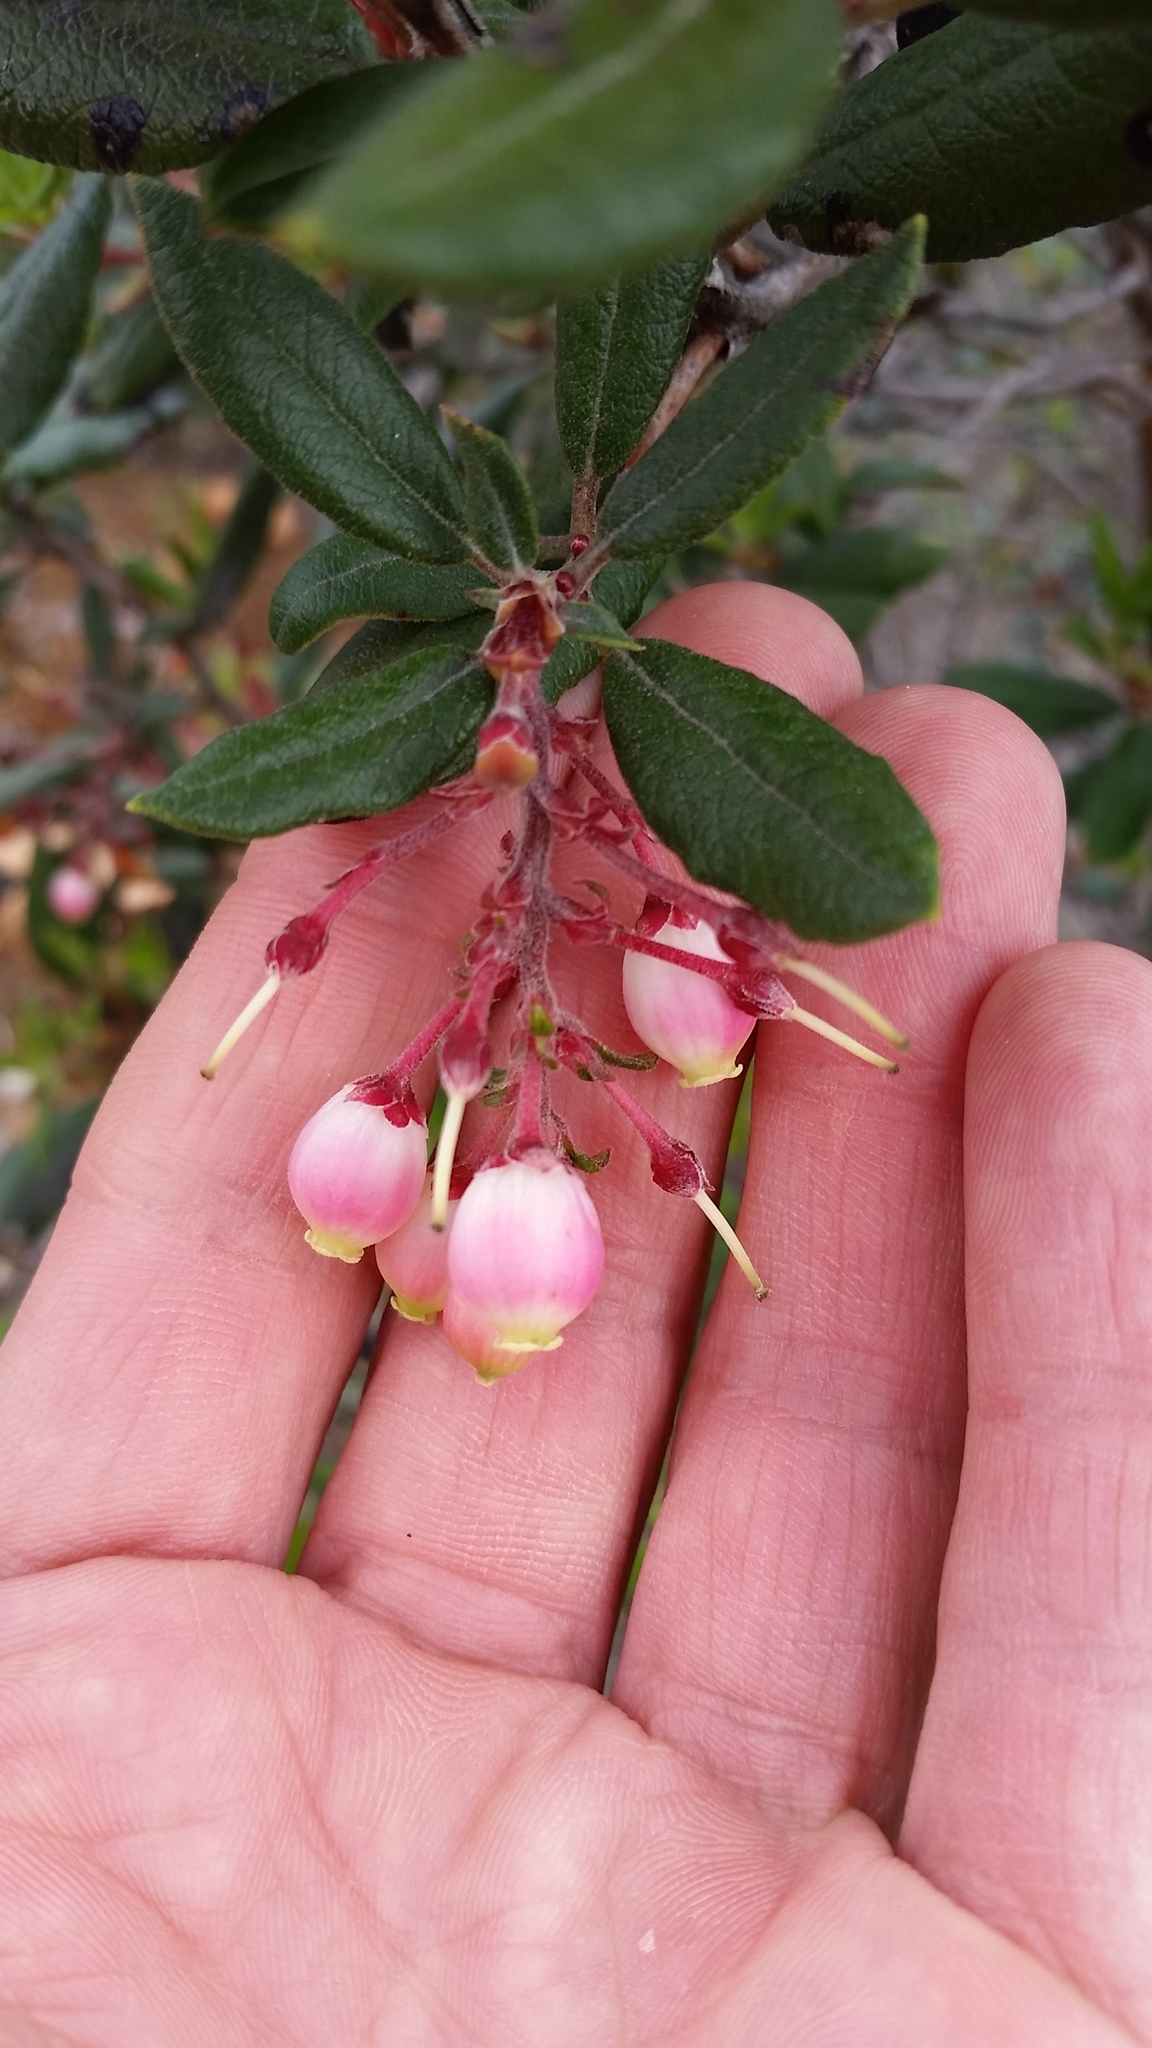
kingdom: Plantae
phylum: Tracheophyta
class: Magnoliopsida
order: Ericales
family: Ericaceae
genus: Arctostaphylos
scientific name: Arctostaphylos bicolor
